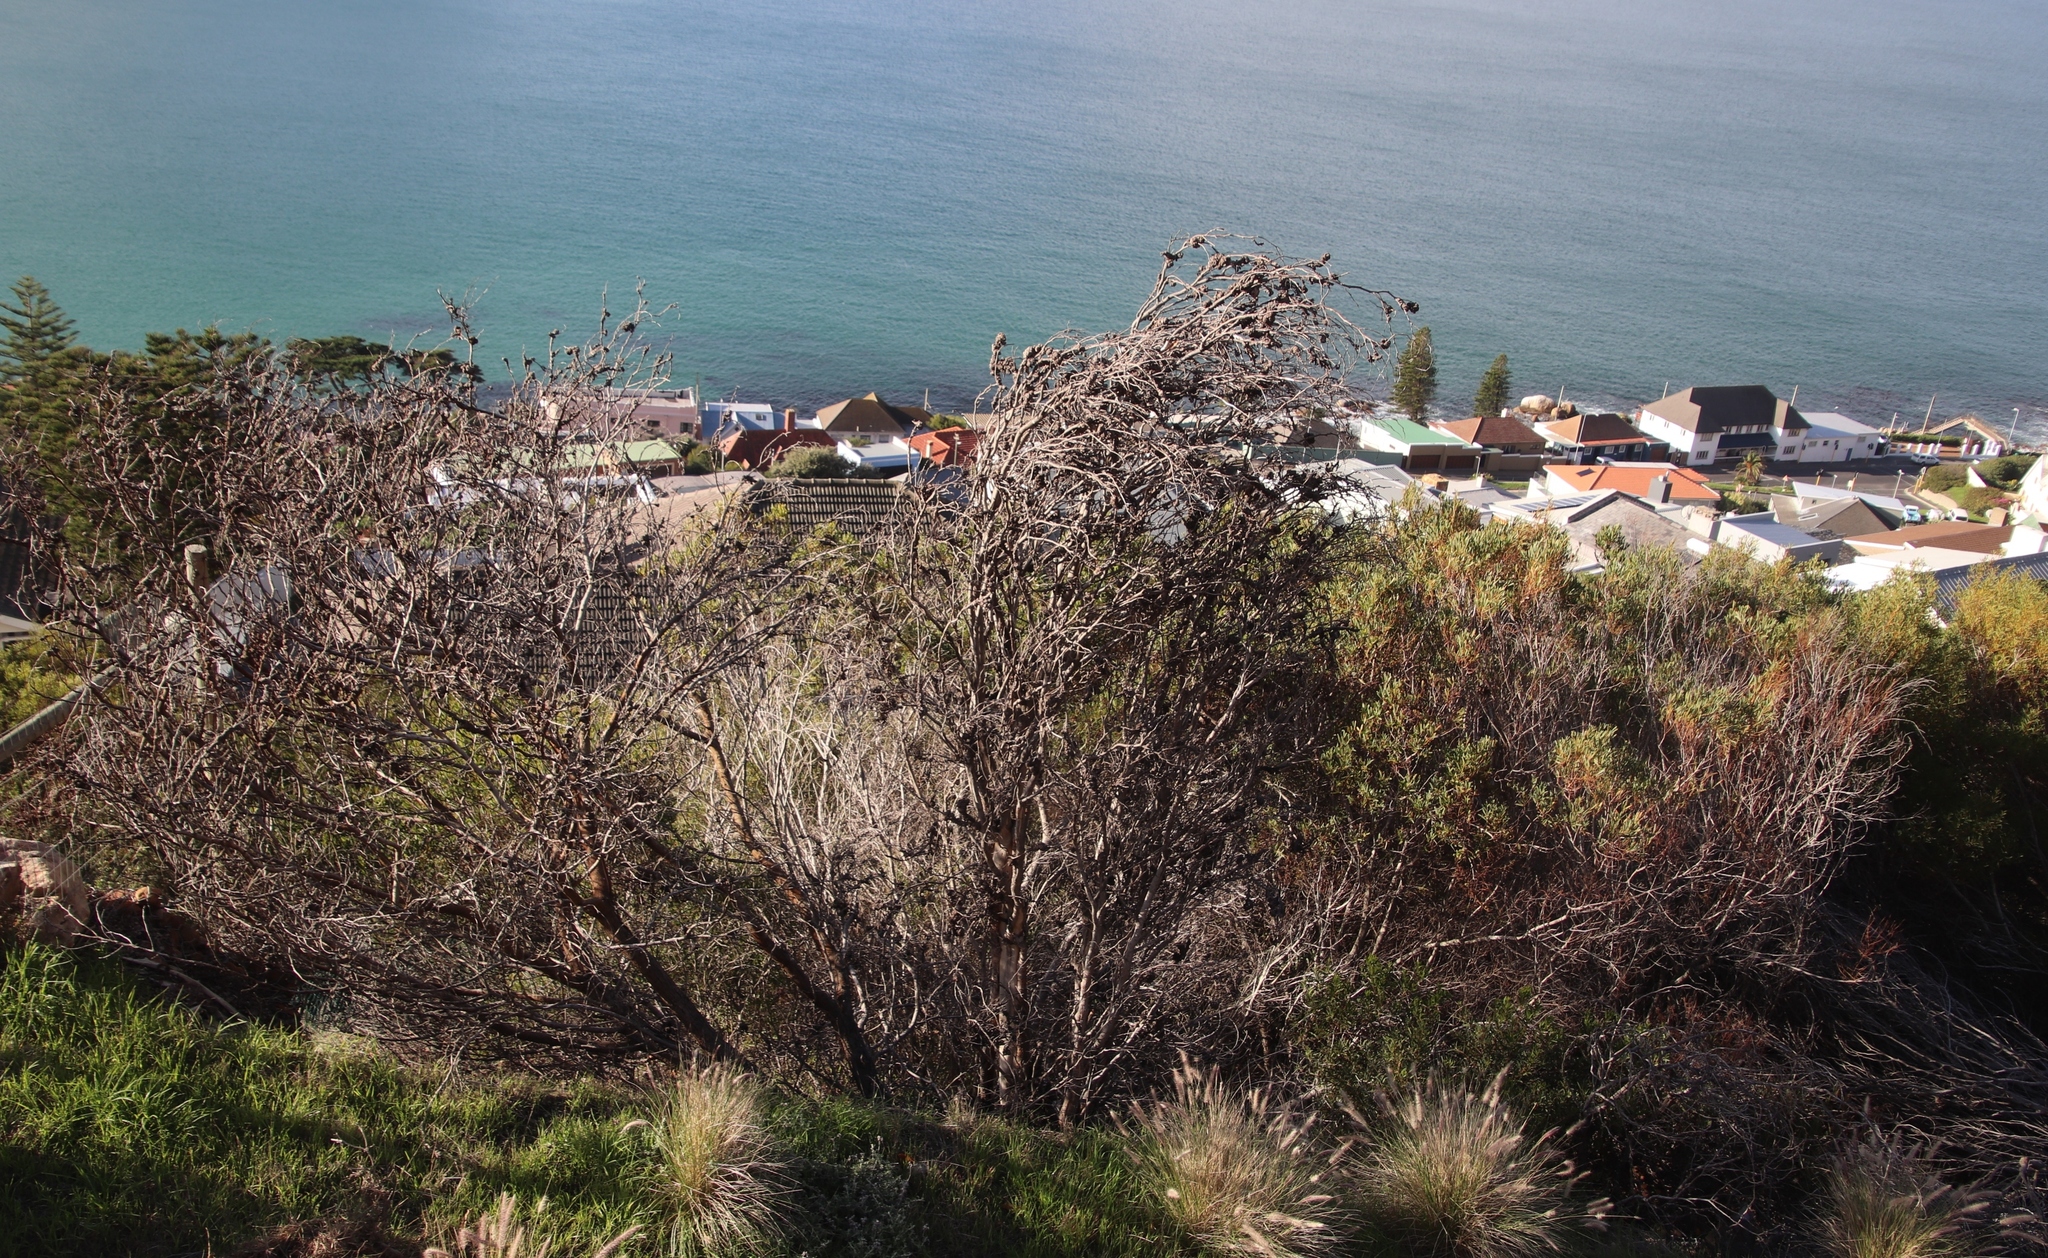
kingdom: Plantae
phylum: Tracheophyta
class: Magnoliopsida
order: Fabales
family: Fabaceae
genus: Acacia
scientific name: Acacia saligna
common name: Orange wattle
